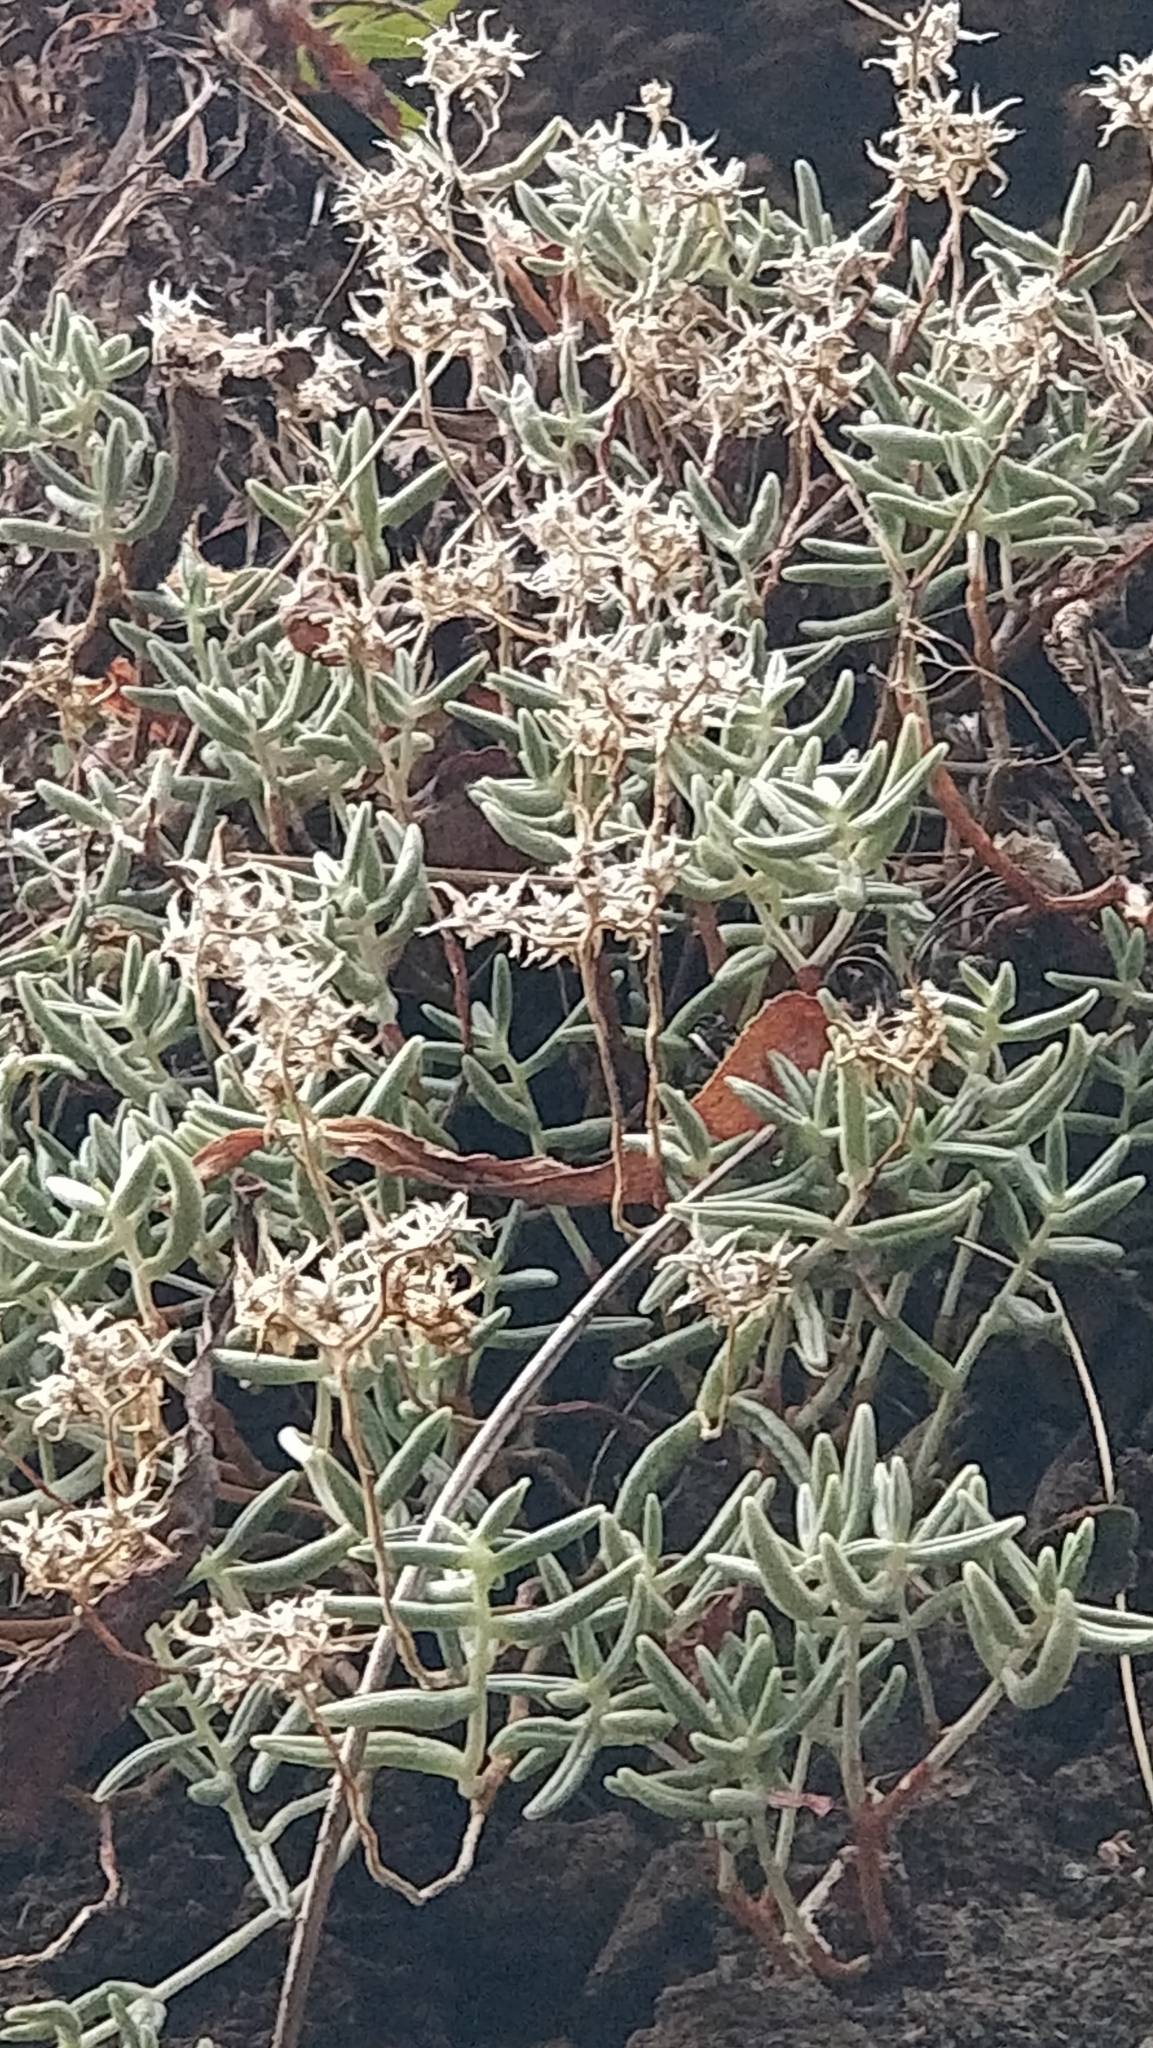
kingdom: Plantae
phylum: Tracheophyta
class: Magnoliopsida
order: Saxifragales
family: Crassulaceae
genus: Sedum
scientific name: Sedum fusiforme
